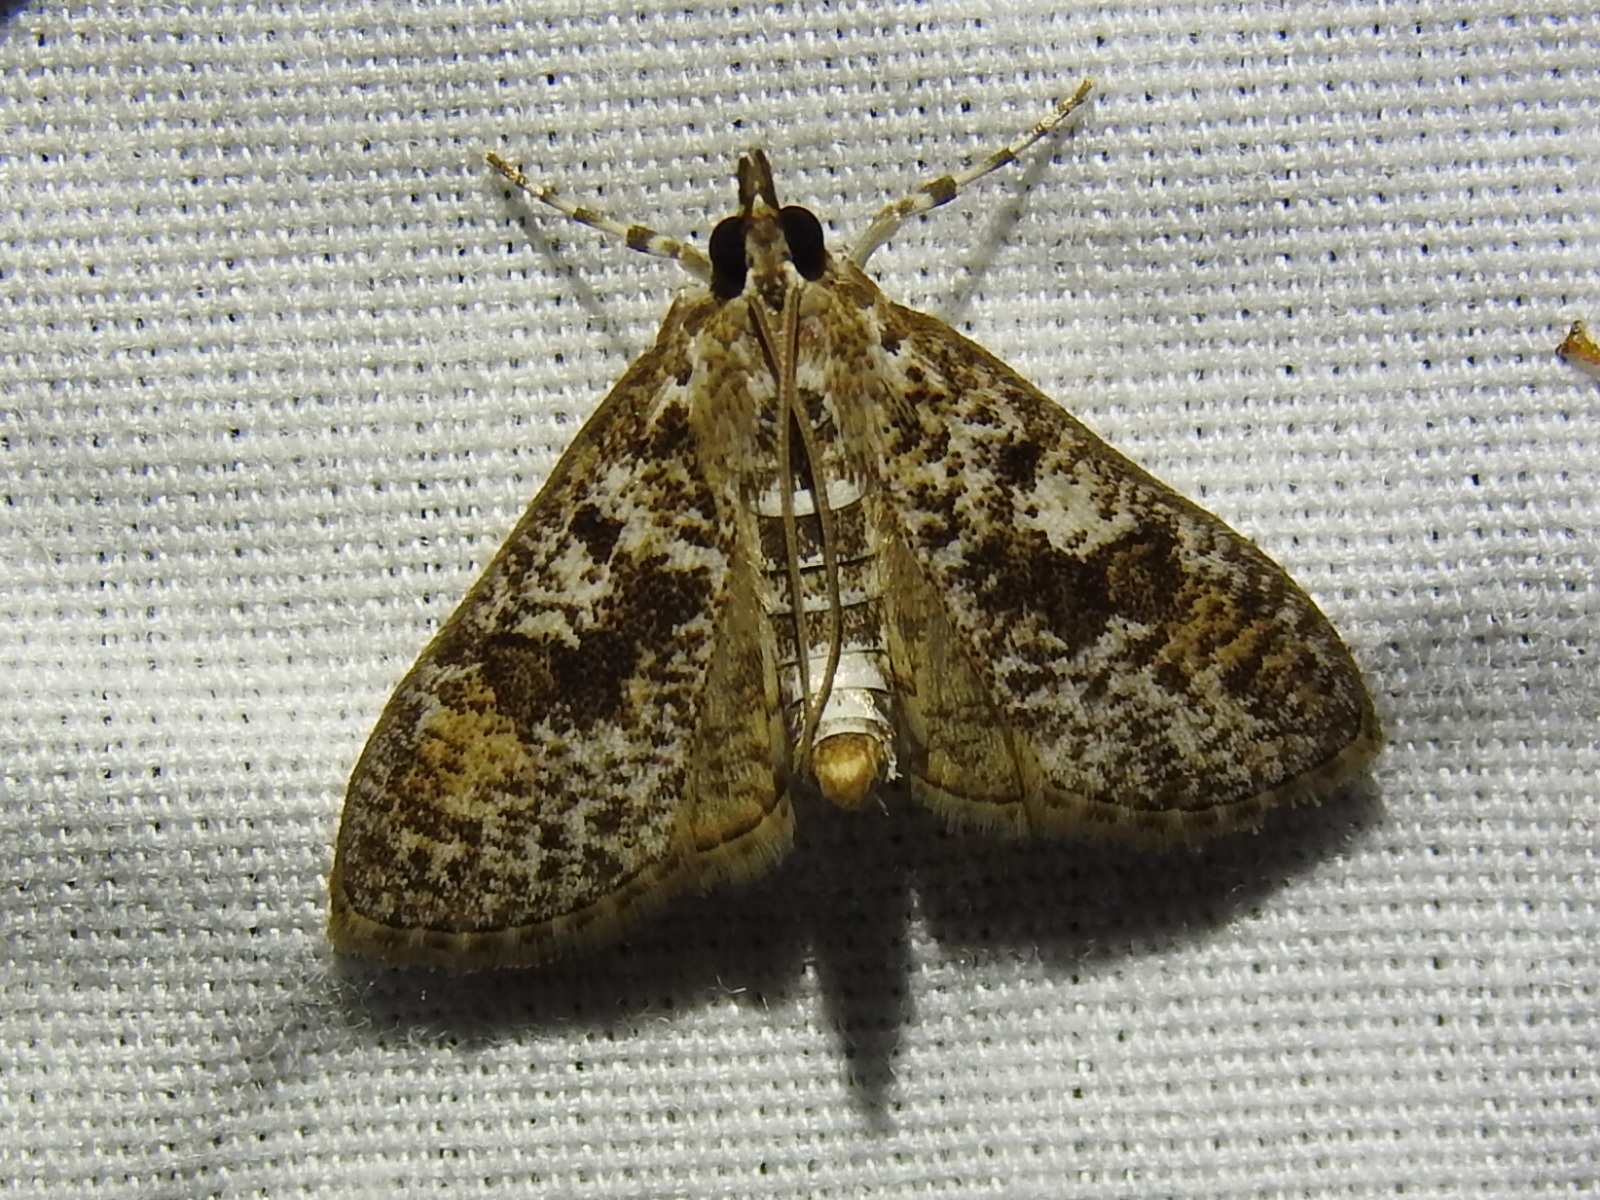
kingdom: Animalia
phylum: Arthropoda
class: Insecta
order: Lepidoptera
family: Crambidae
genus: Palpita
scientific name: Palpita magniferalis
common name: Splendid palpita moth
